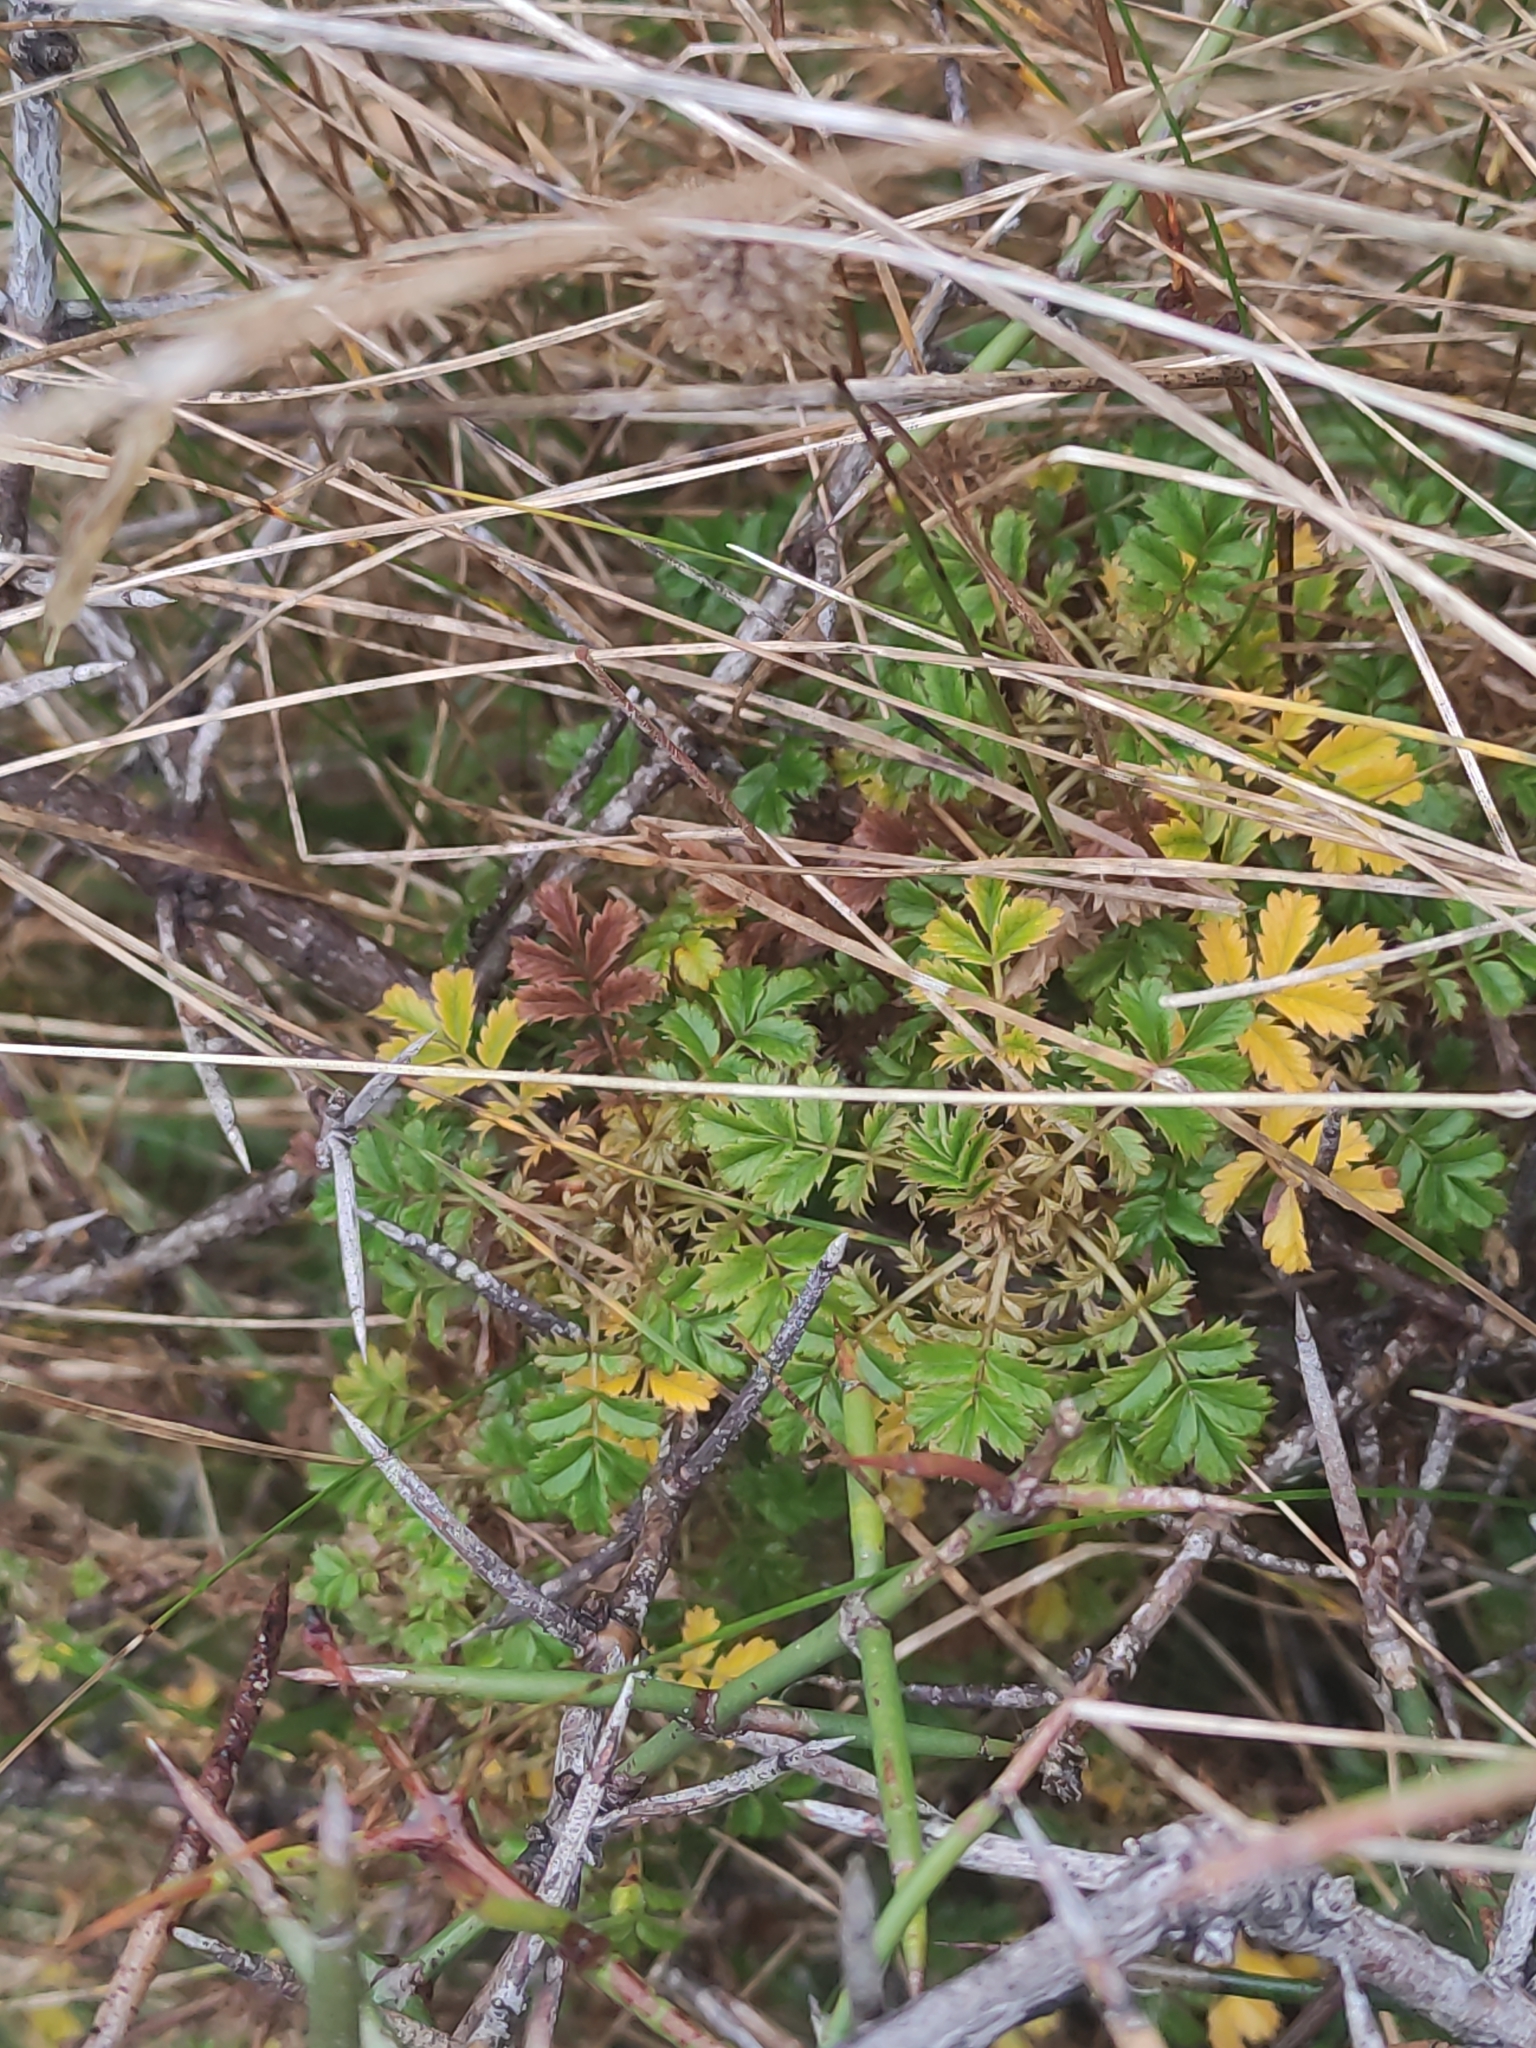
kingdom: Plantae
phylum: Tracheophyta
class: Magnoliopsida
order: Rosales
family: Rosaceae
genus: Acaena
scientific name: Acaena anserinifolia
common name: Bronze pirri-pirri-bur
